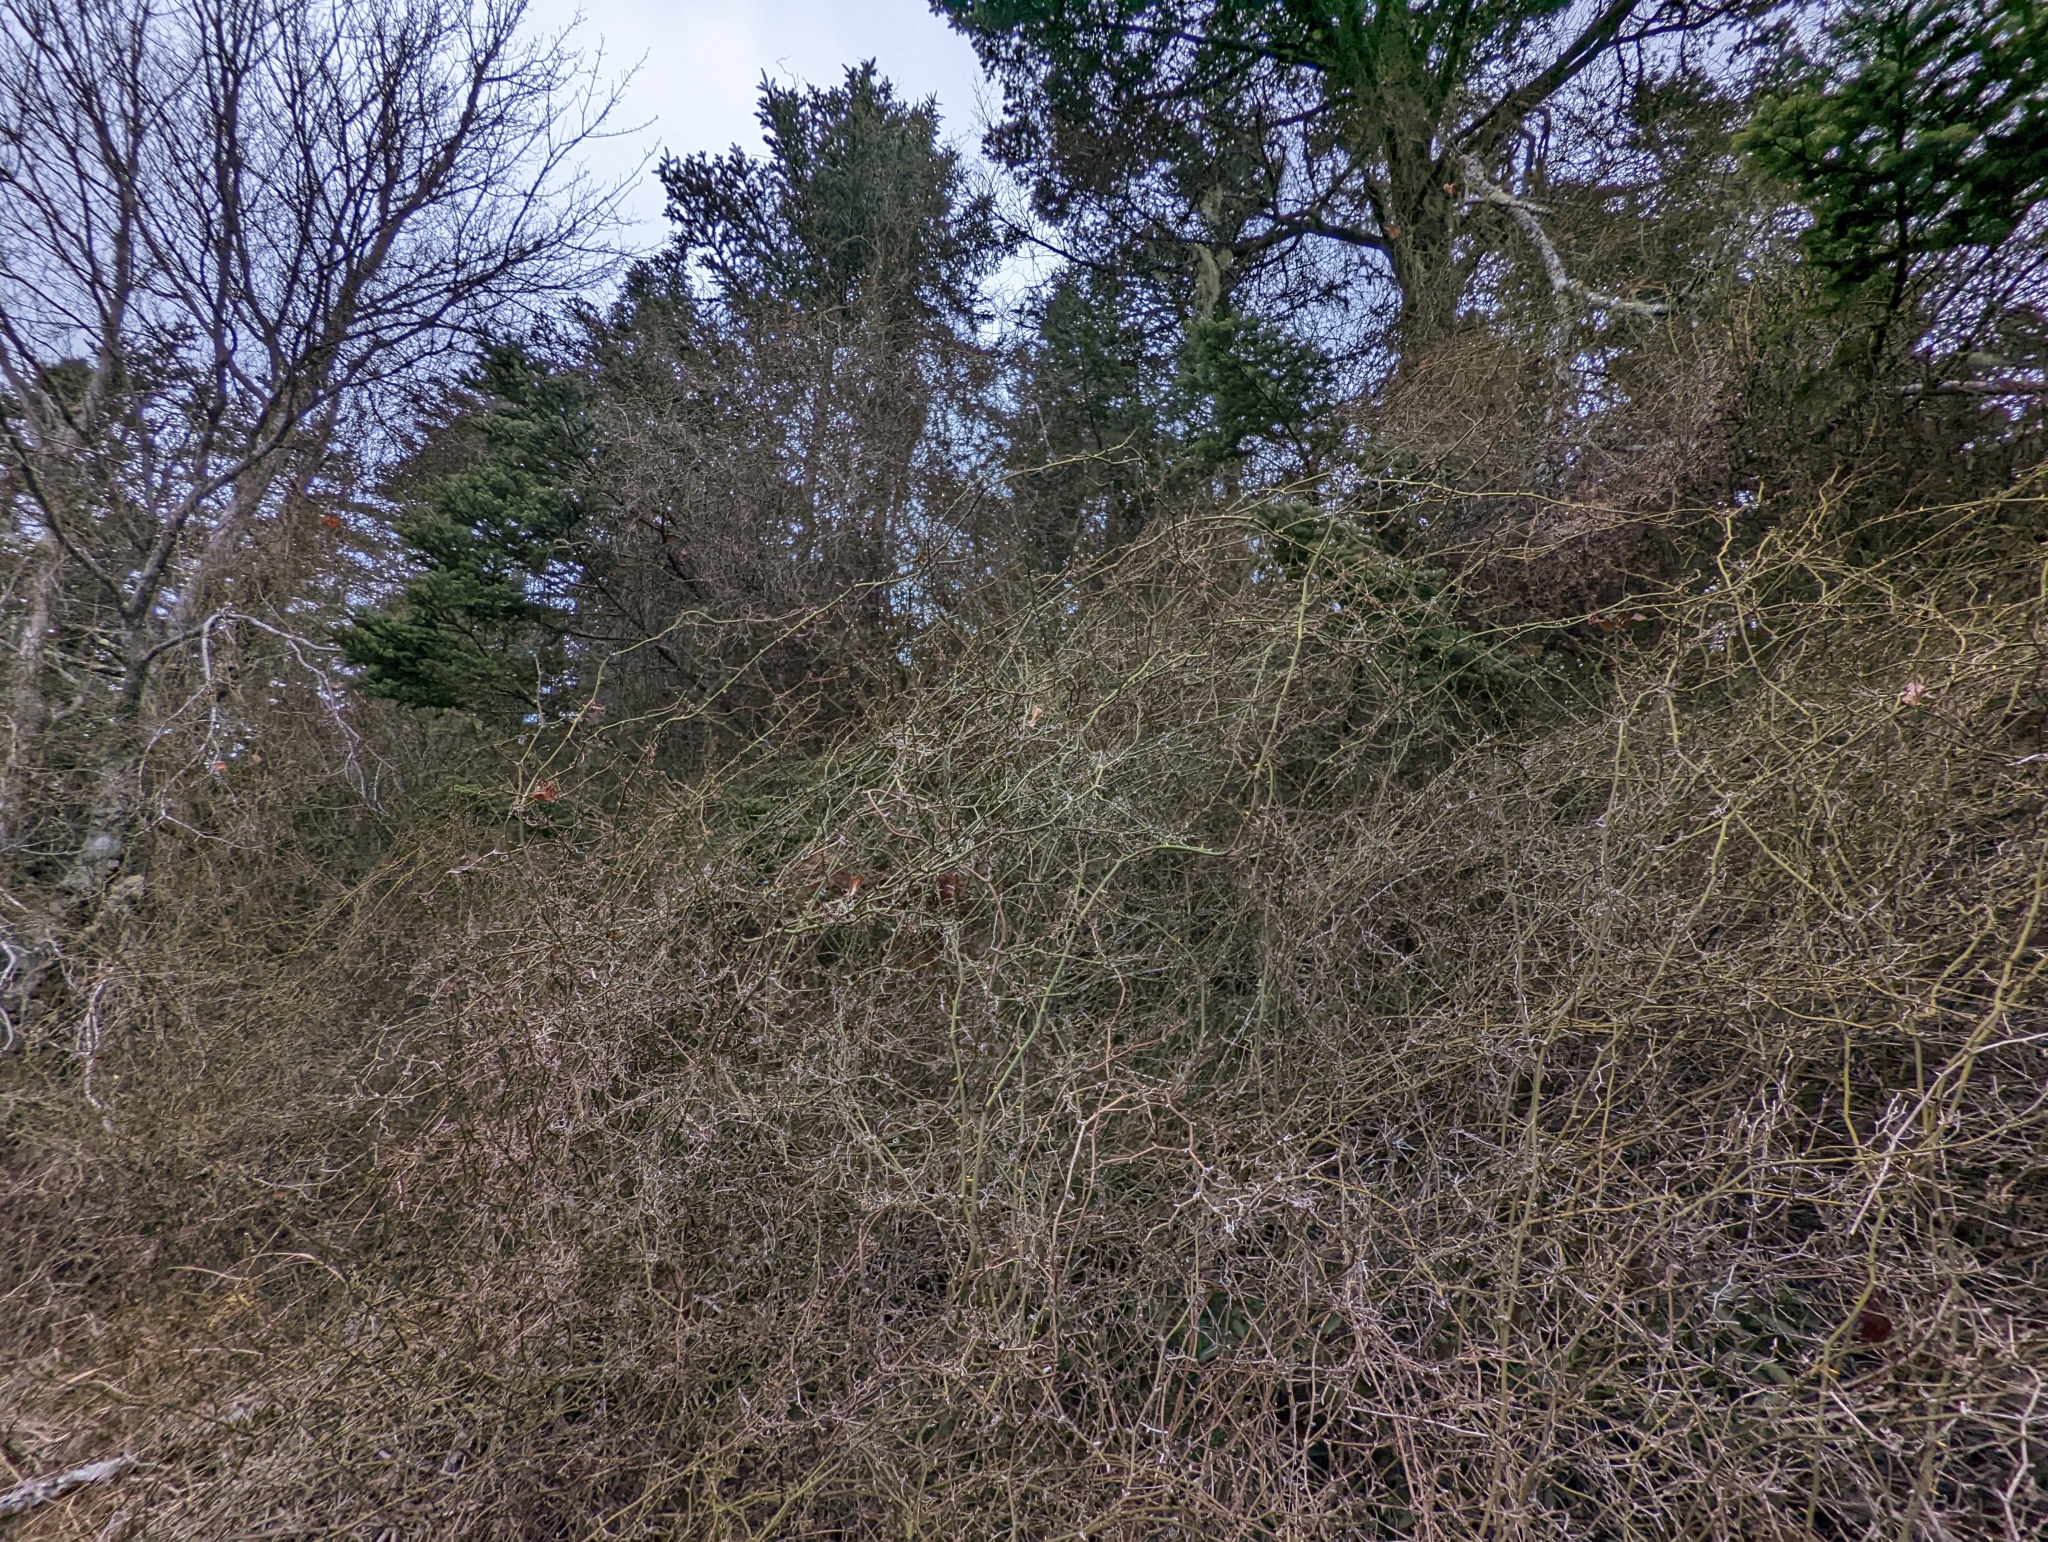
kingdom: Plantae
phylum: Tracheophyta
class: Liliopsida
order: Liliales
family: Smilacaceae
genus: Smilax
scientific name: Smilax rotundifolia
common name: Bullbriar
